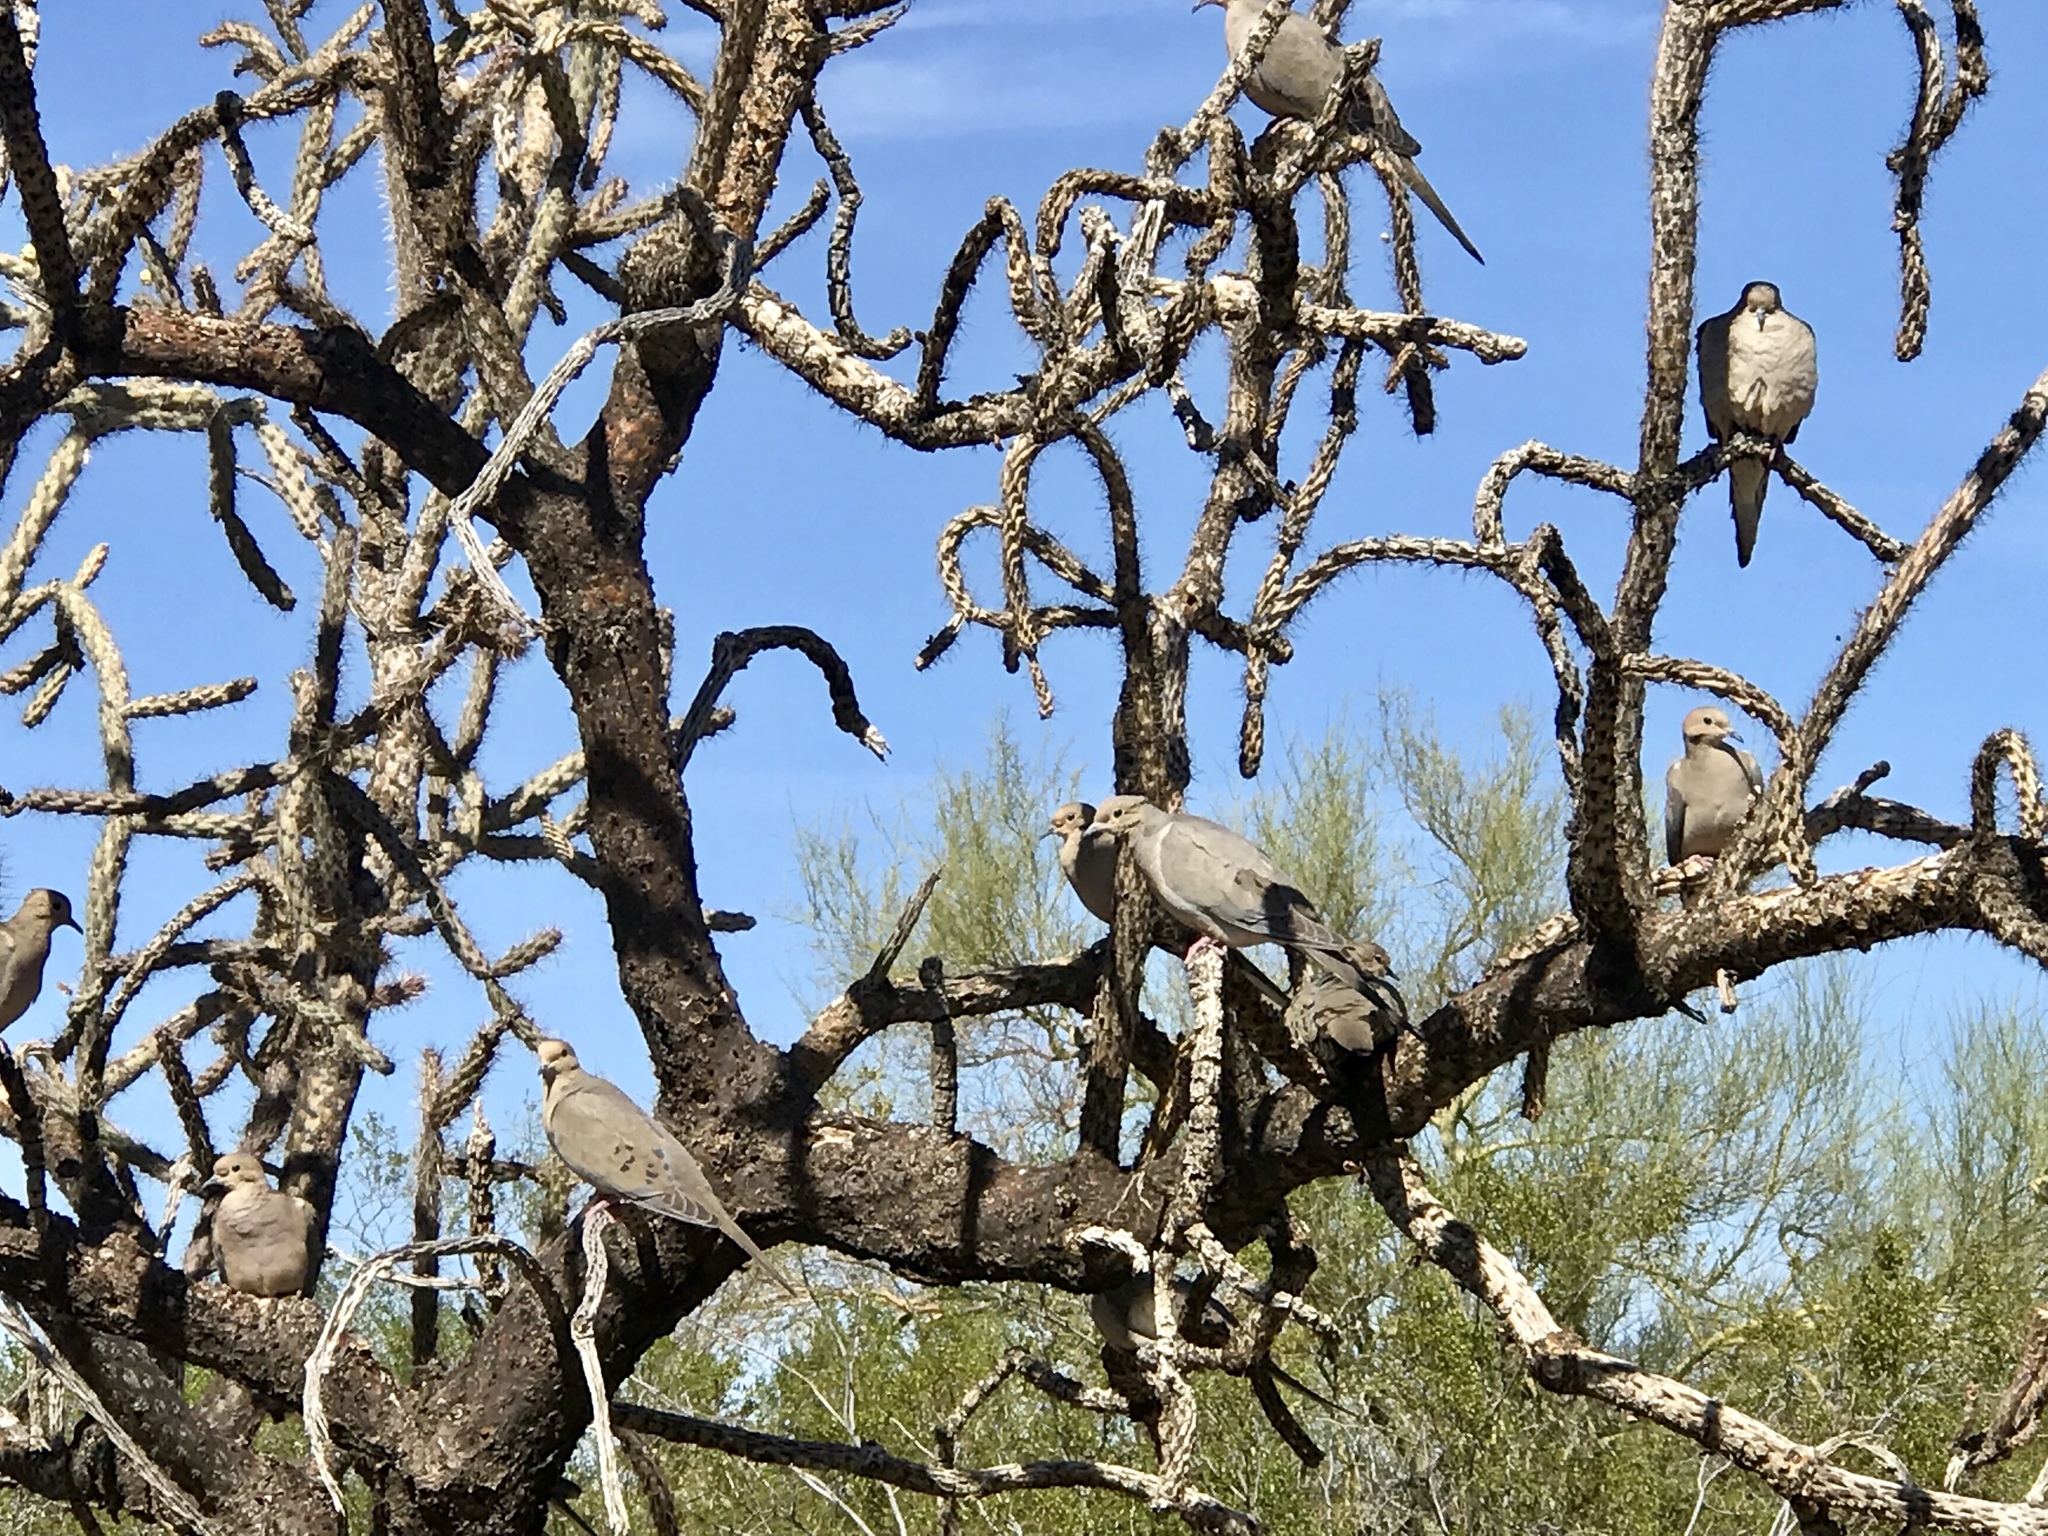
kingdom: Animalia
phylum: Chordata
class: Aves
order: Columbiformes
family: Columbidae
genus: Zenaida
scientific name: Zenaida macroura
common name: Mourning dove
